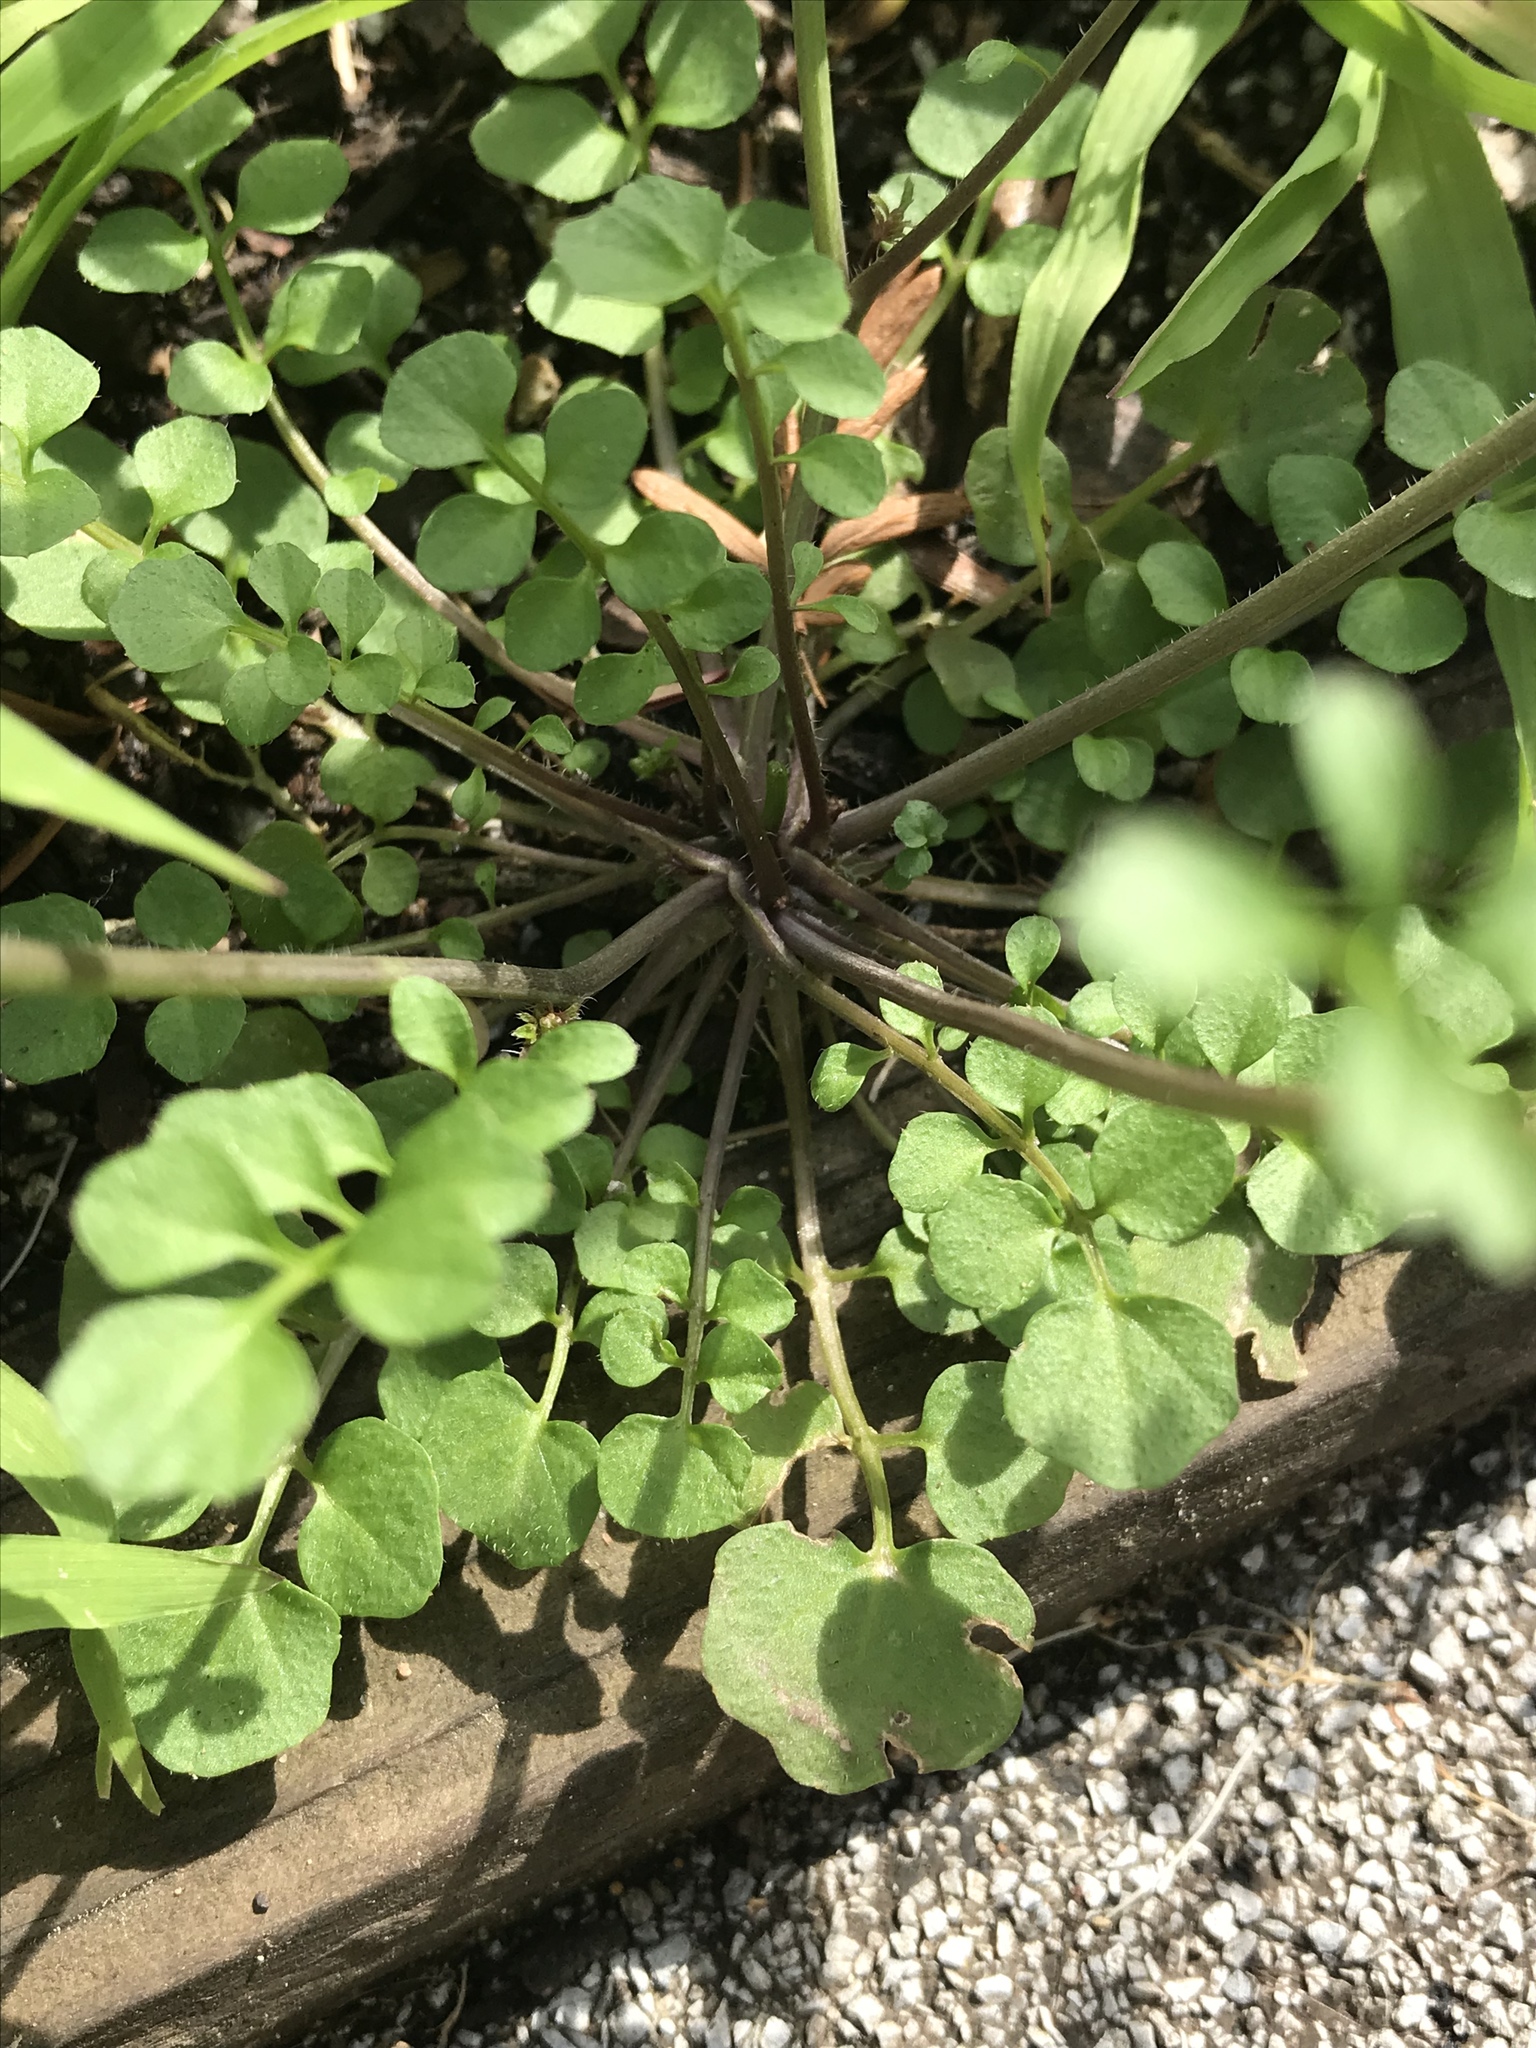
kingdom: Plantae
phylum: Tracheophyta
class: Magnoliopsida
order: Brassicales
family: Brassicaceae
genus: Cardamine
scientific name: Cardamine hirsuta
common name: Hairy bittercress
